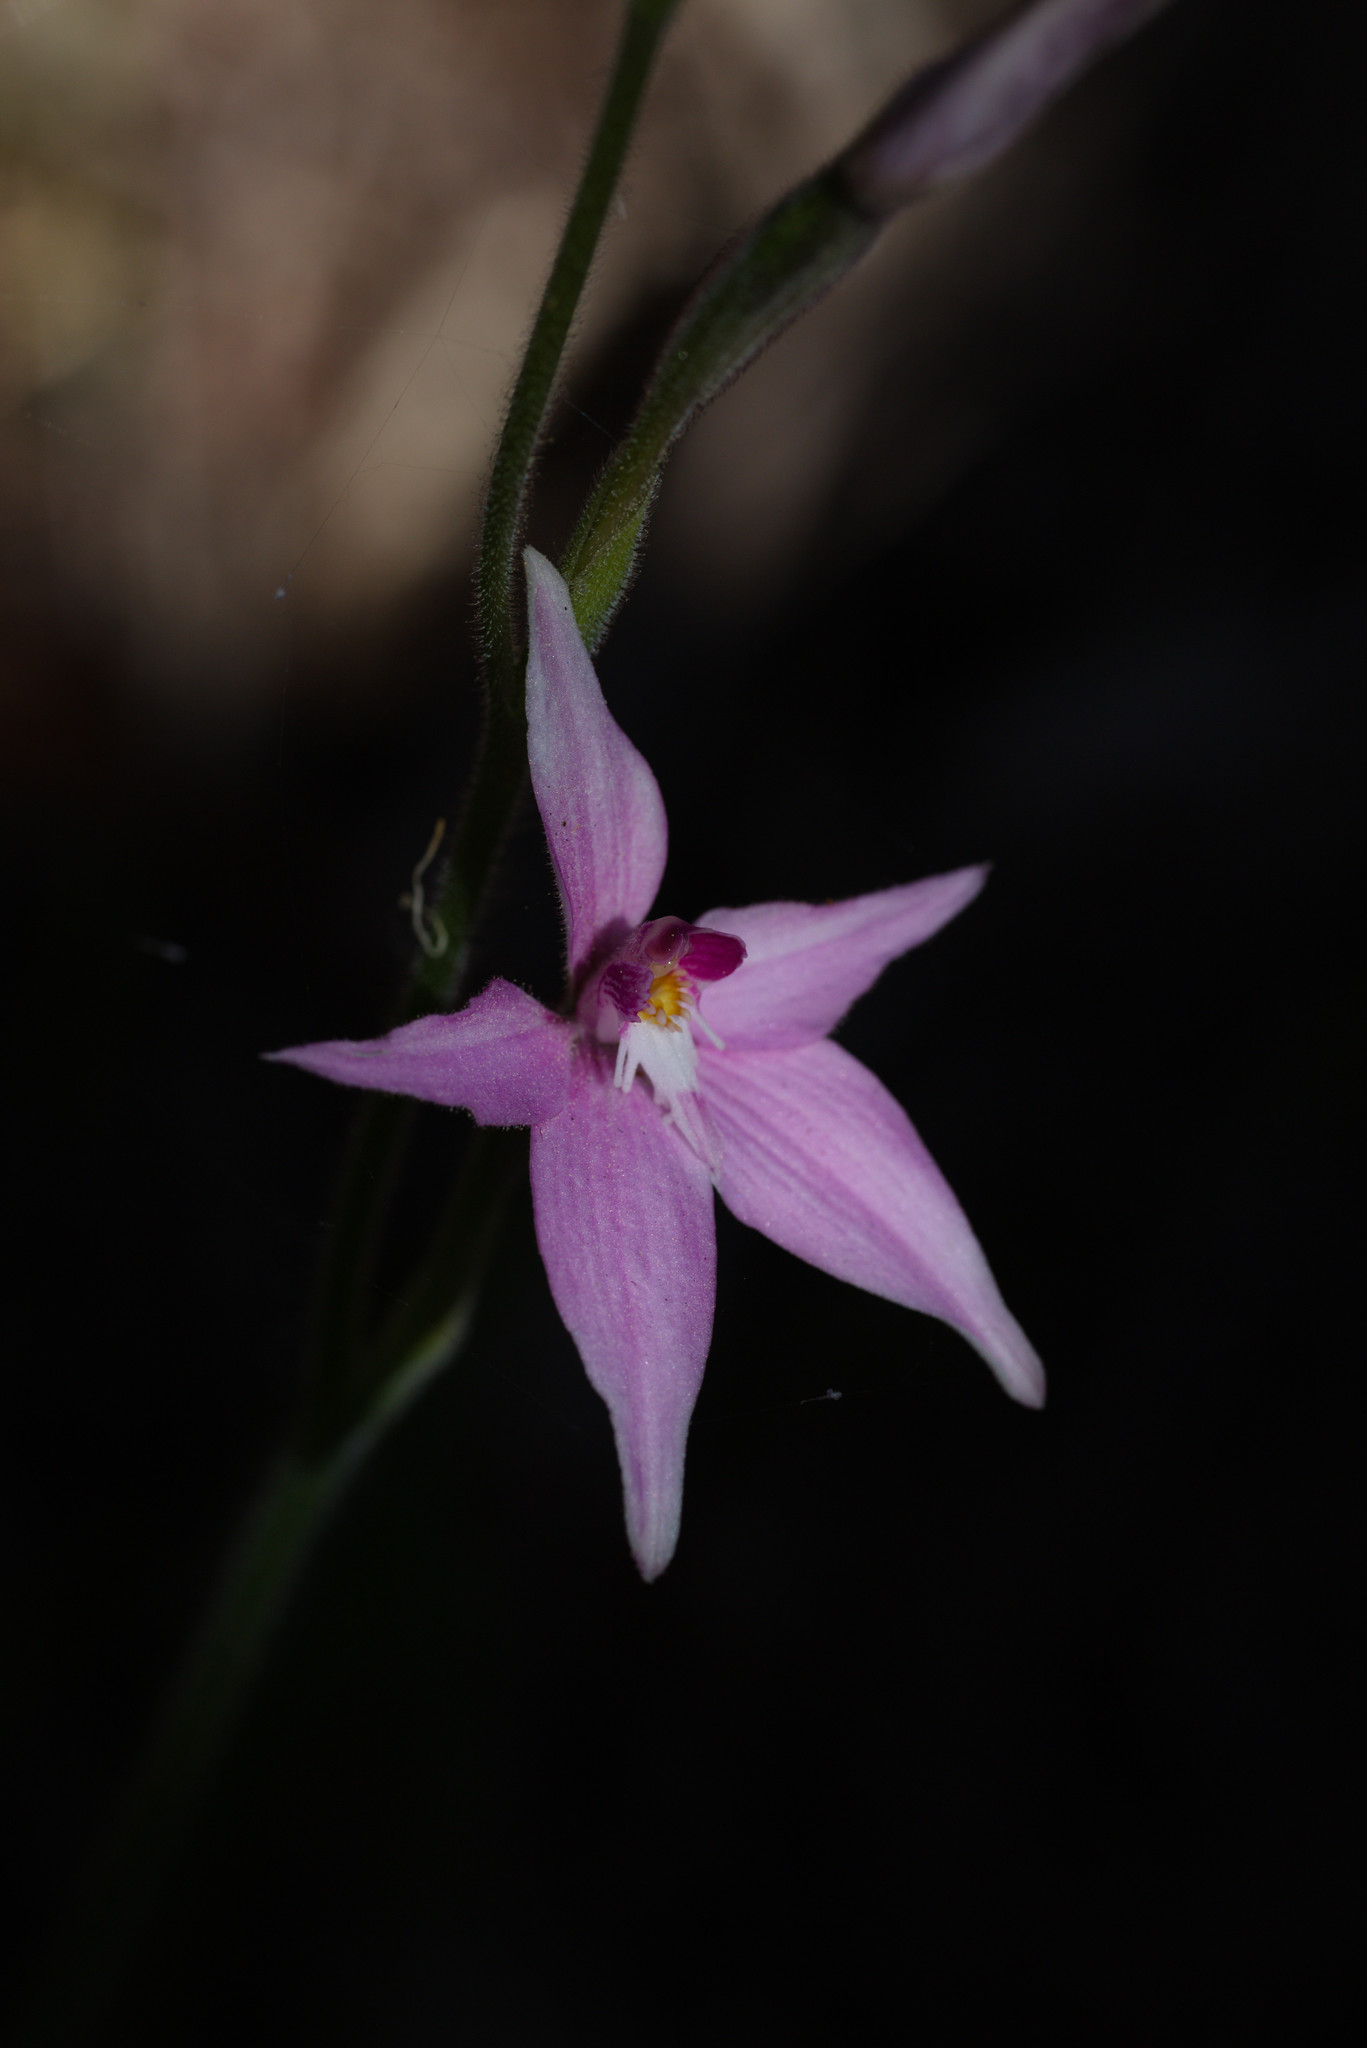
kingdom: Plantae
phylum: Tracheophyta
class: Liliopsida
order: Asparagales
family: Orchidaceae
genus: Caladenia
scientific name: Caladenia latifolia
